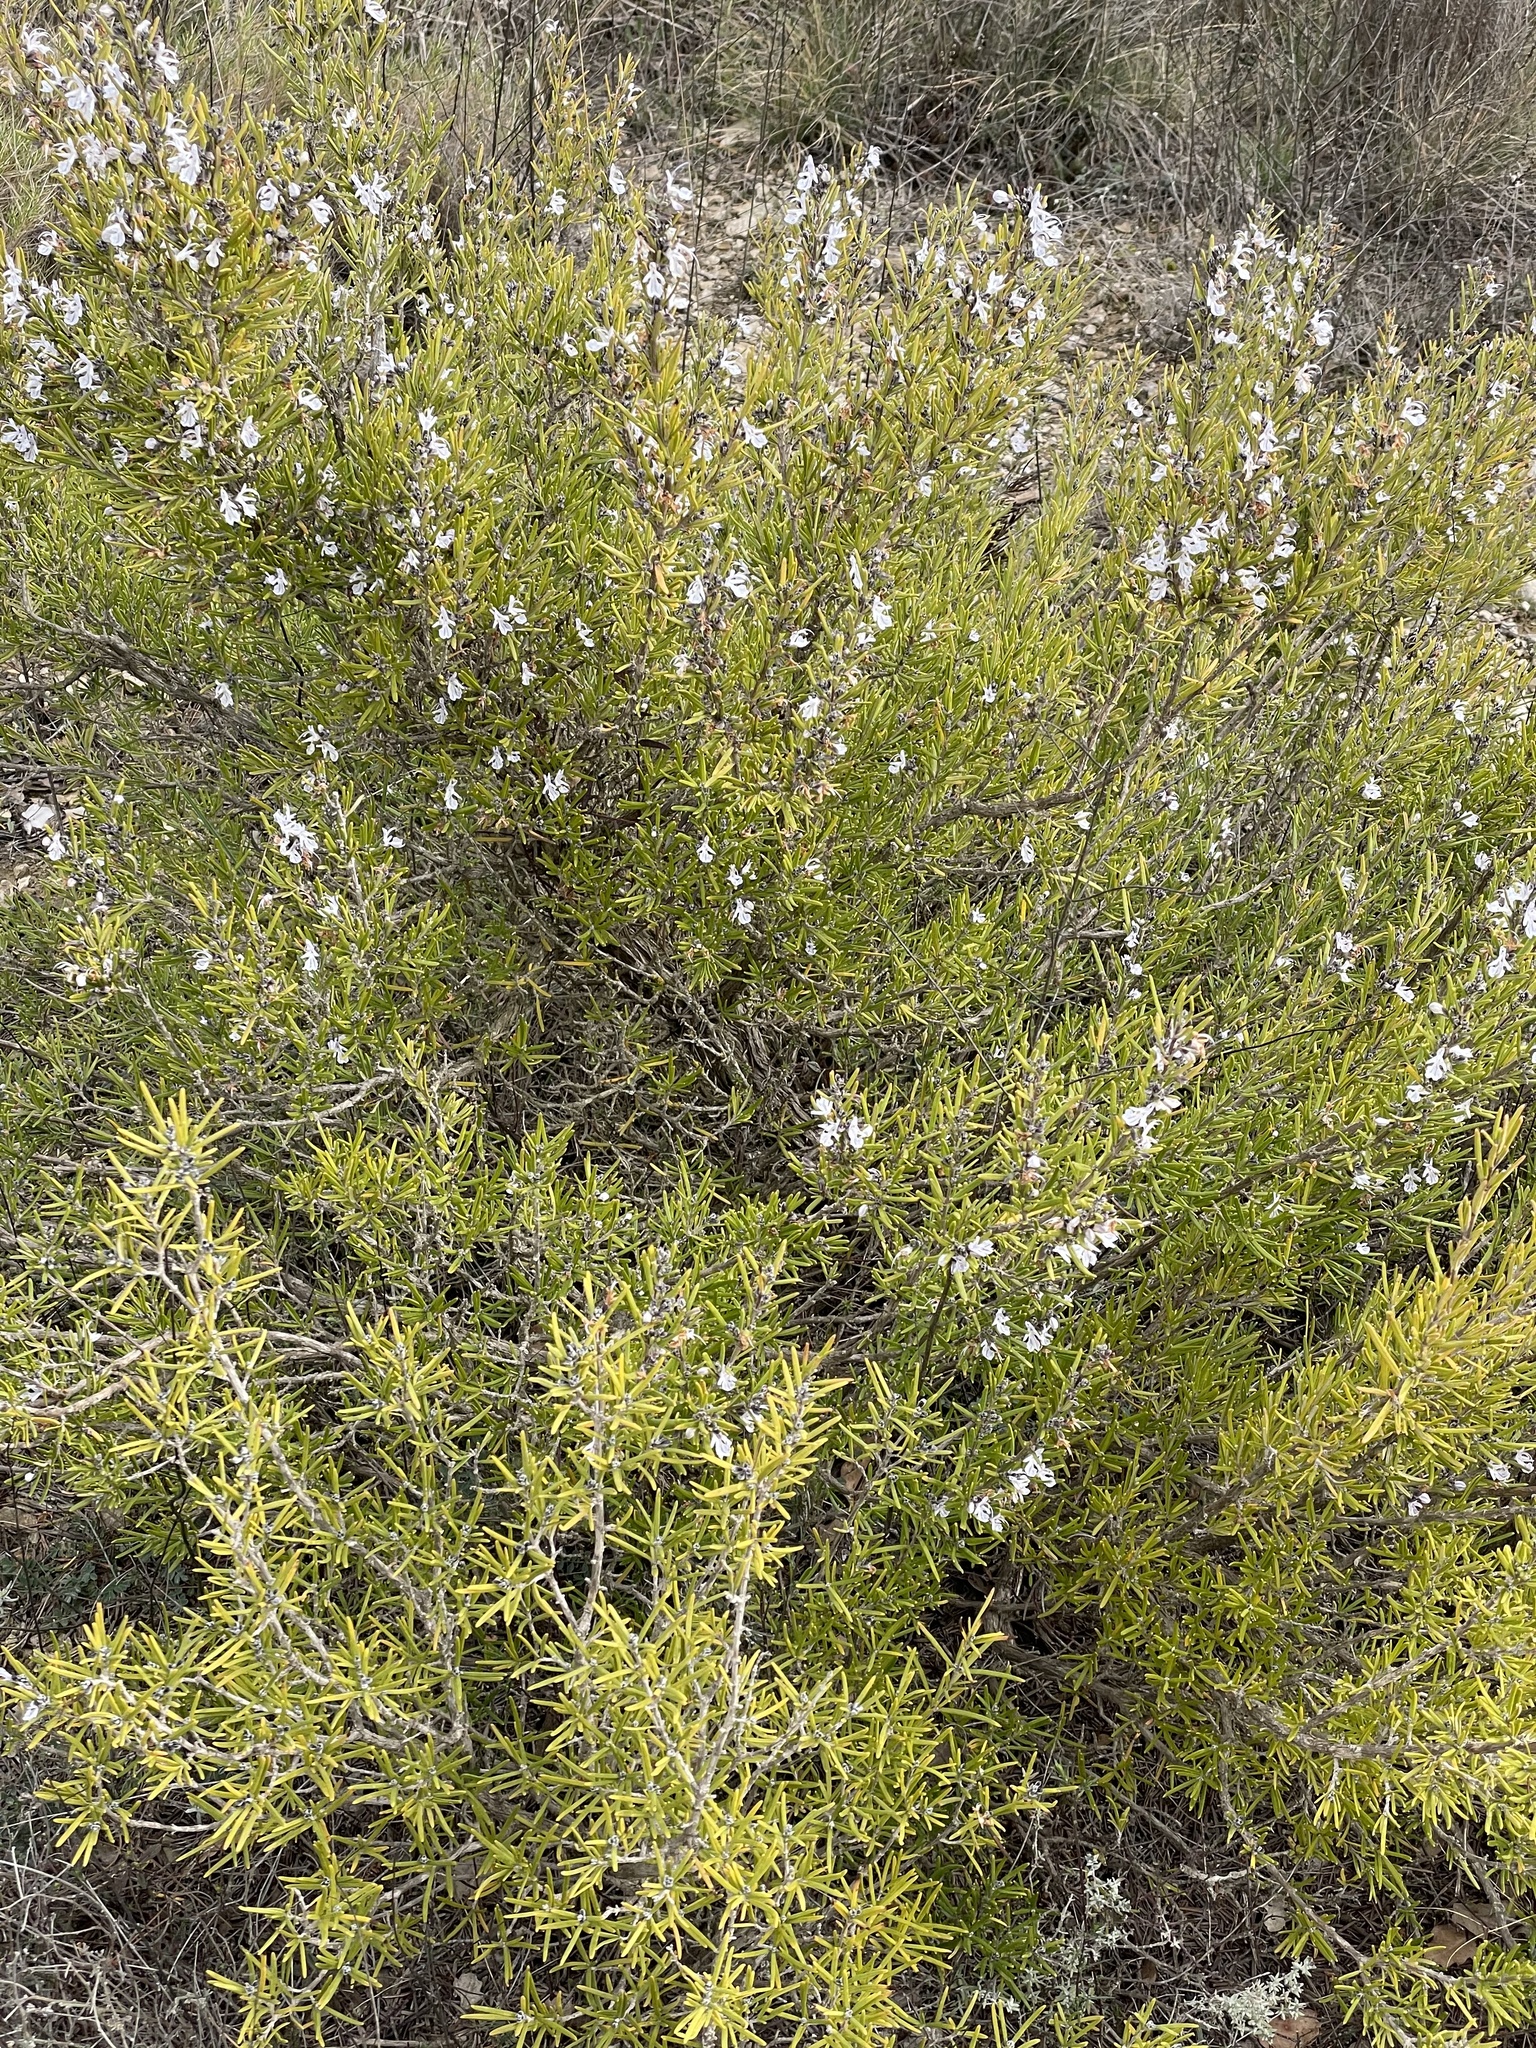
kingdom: Plantae
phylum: Tracheophyta
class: Magnoliopsida
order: Lamiales
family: Lamiaceae
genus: Salvia
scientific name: Salvia rosmarinus
